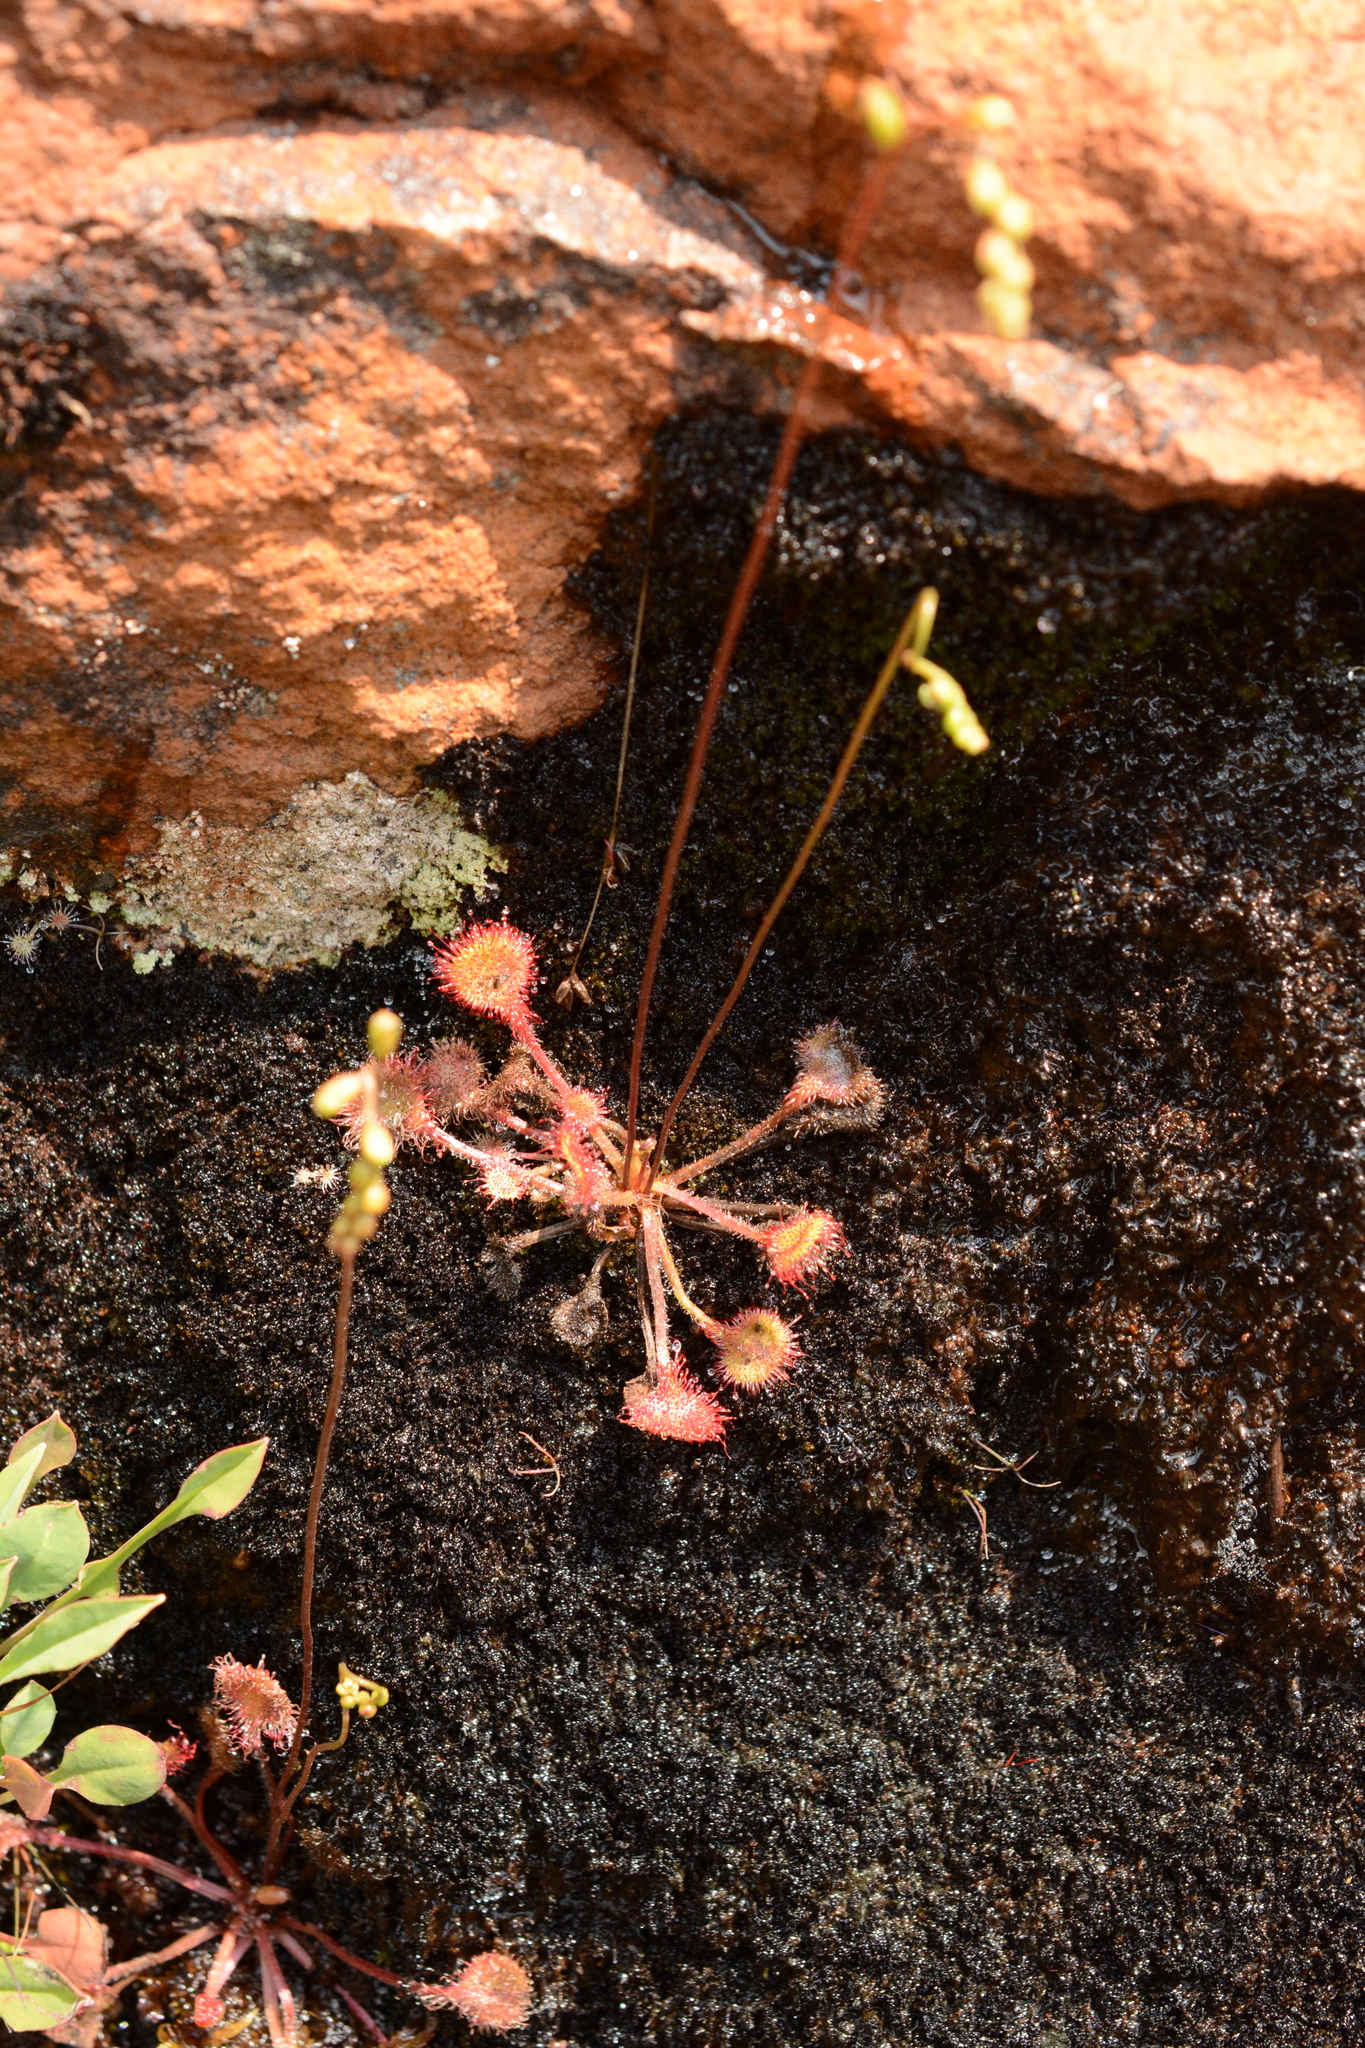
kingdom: Plantae
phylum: Tracheophyta
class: Magnoliopsida
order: Caryophyllales
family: Droseraceae
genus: Drosera
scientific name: Drosera rotundifolia
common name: Round-leaved sundew
